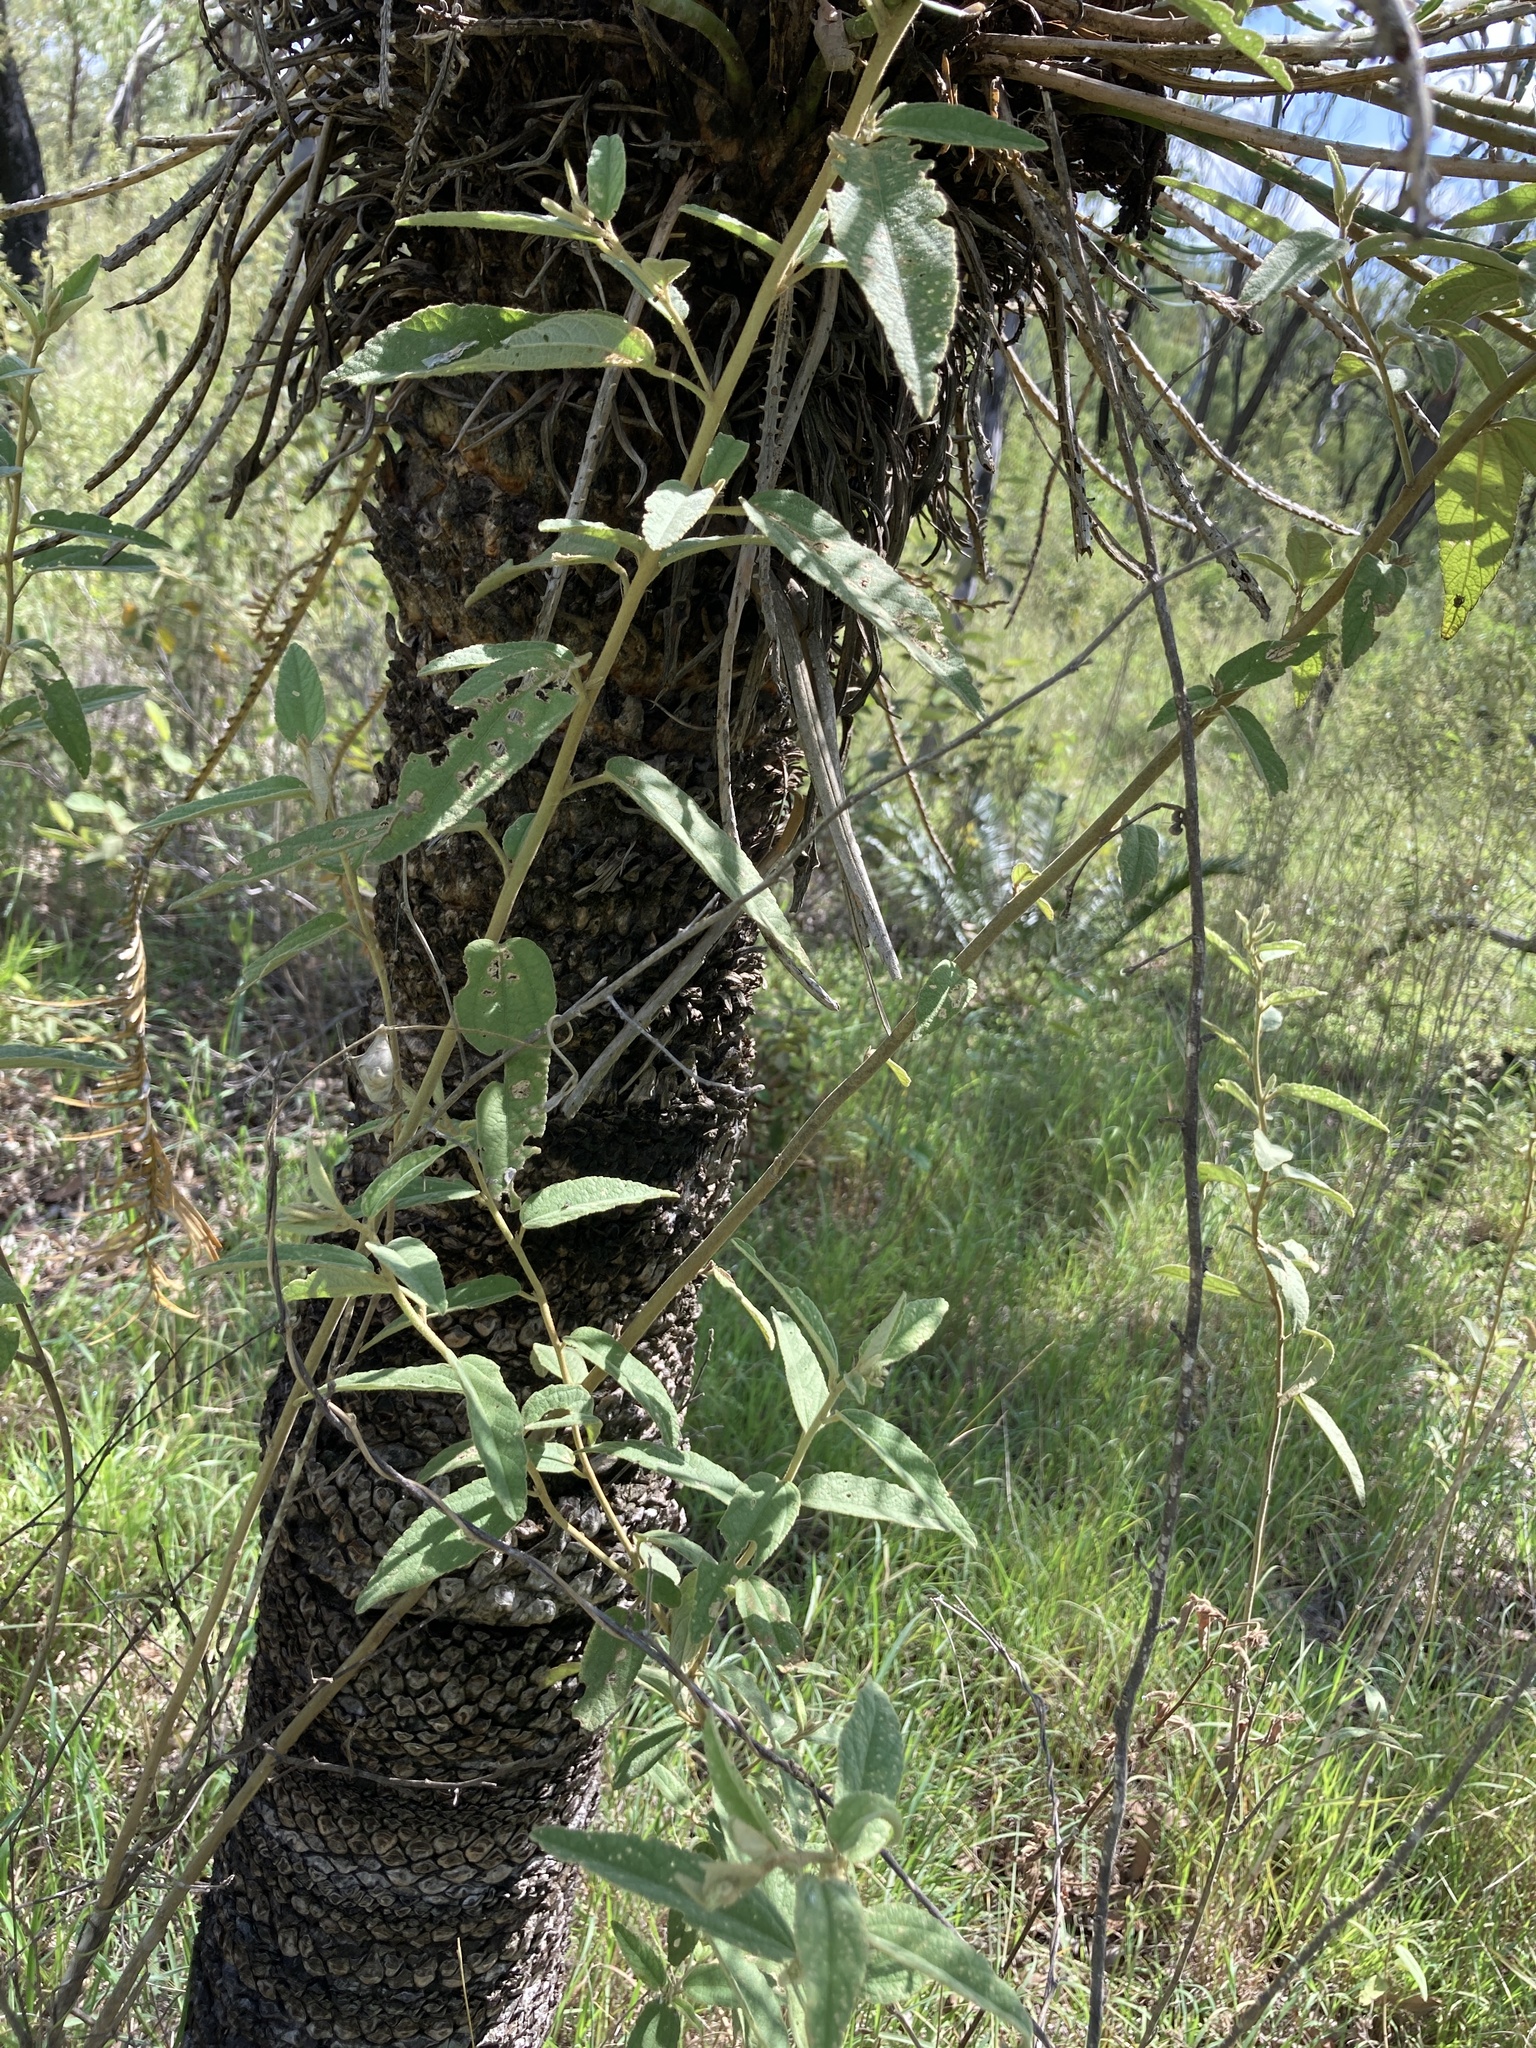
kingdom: Plantae
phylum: Tracheophyta
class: Magnoliopsida
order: Malvales
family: Malvaceae
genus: Sida
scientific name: Sida hackettiana
